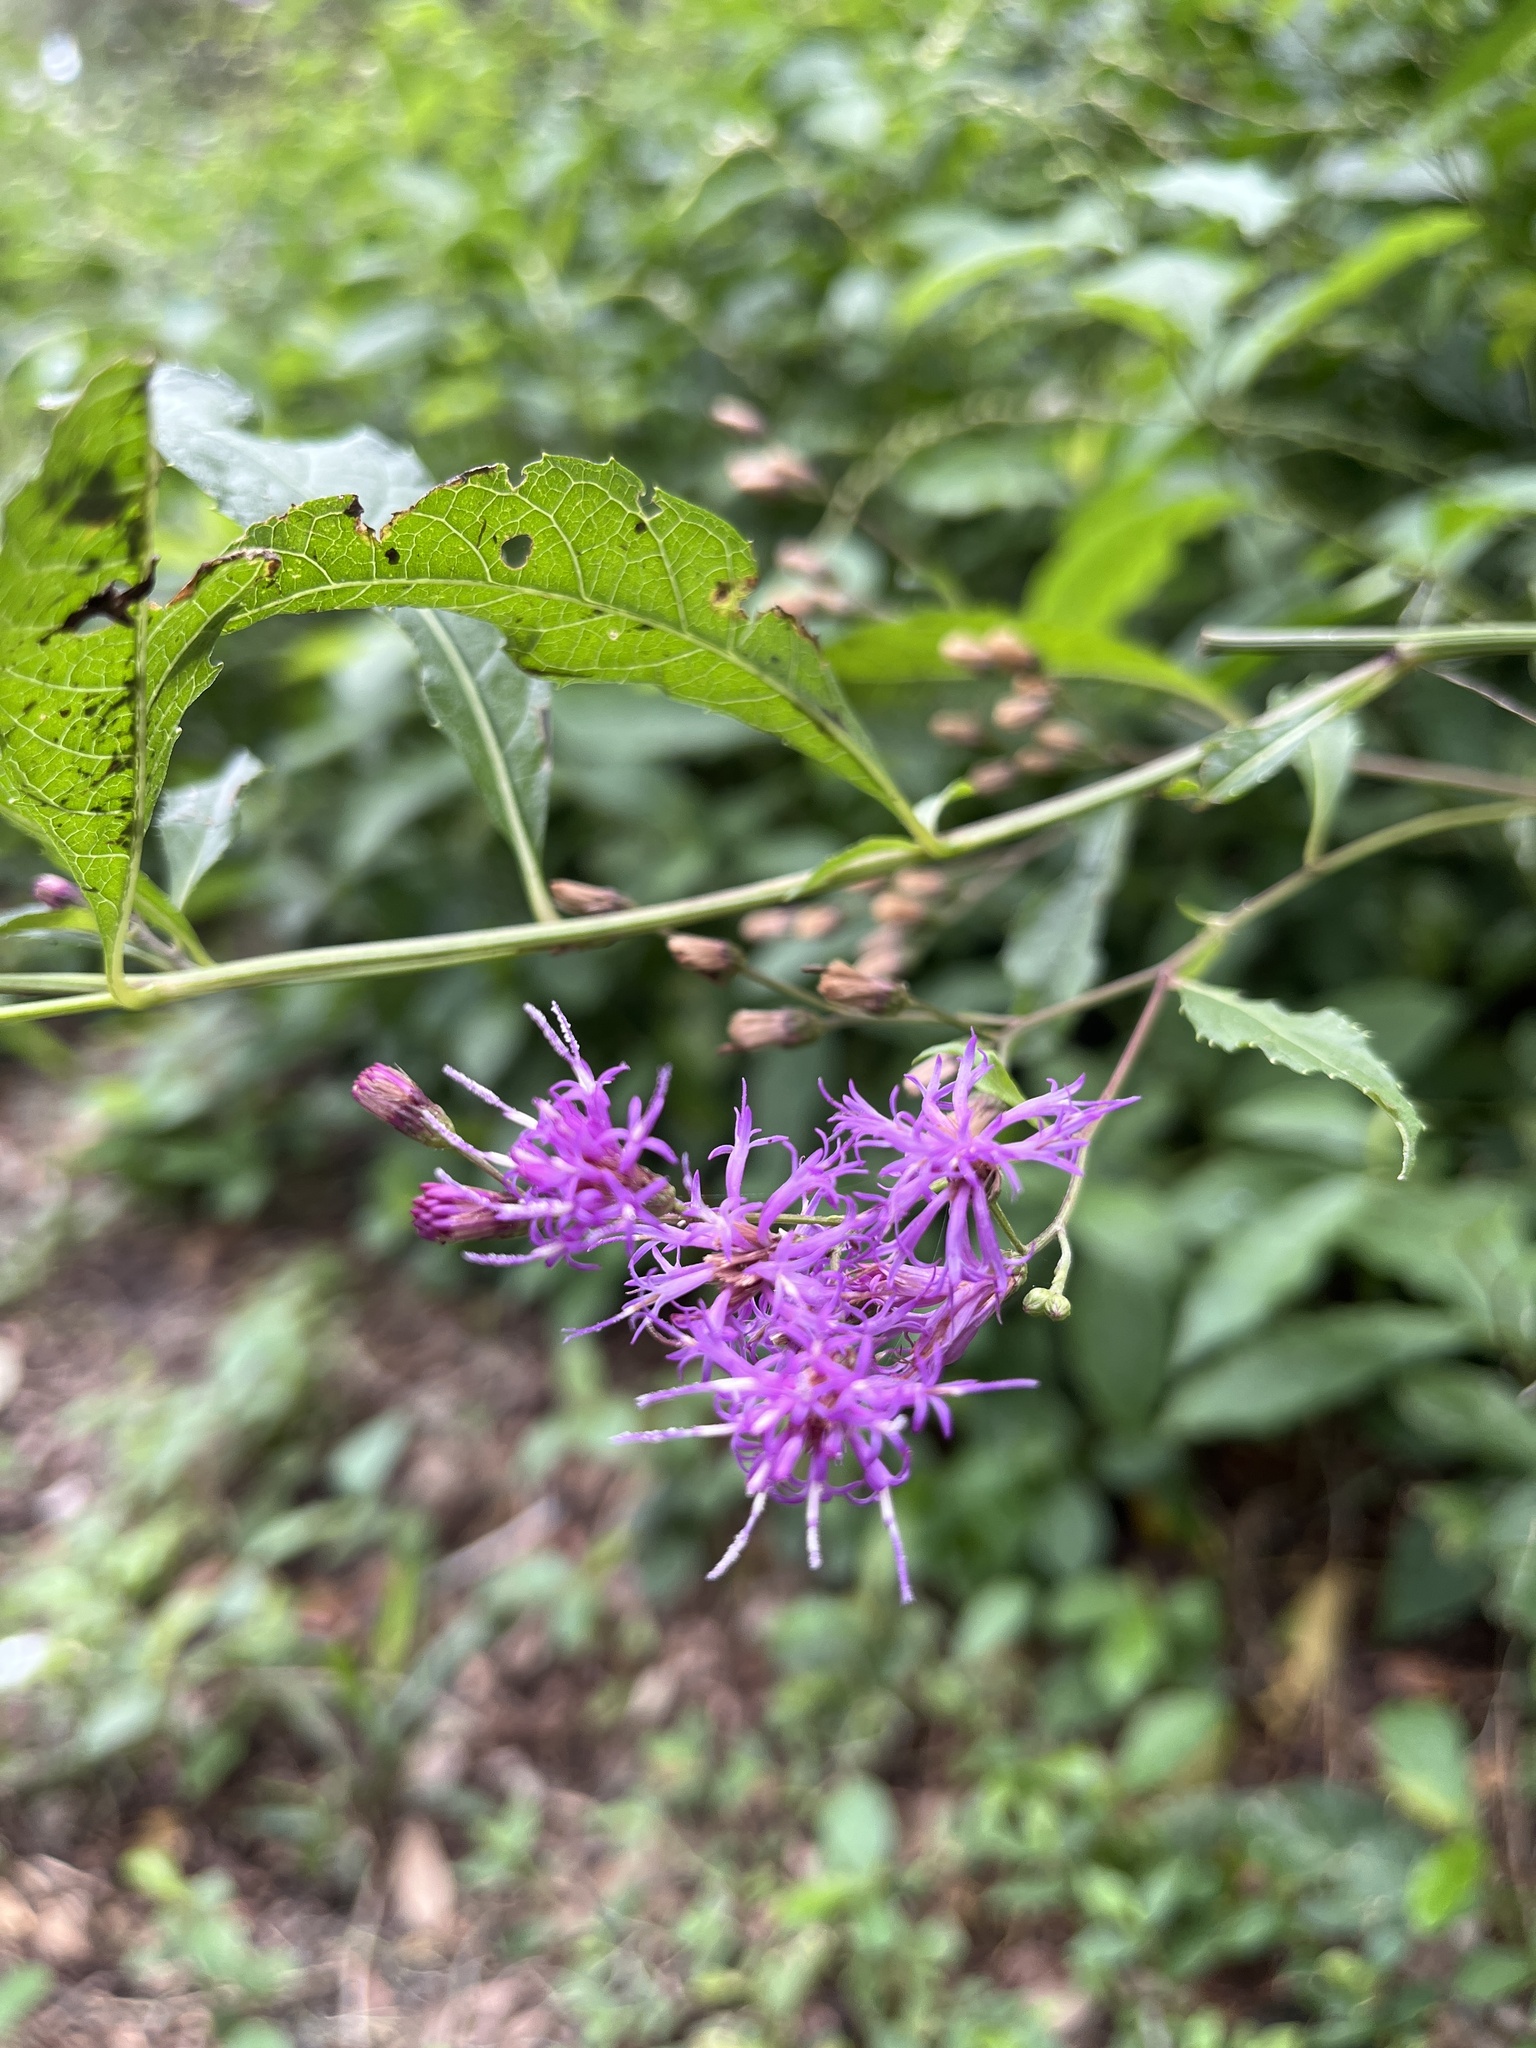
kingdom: Plantae
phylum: Tracheophyta
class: Magnoliopsida
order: Asterales
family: Asteraceae
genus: Vernonia
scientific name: Vernonia gigantea
